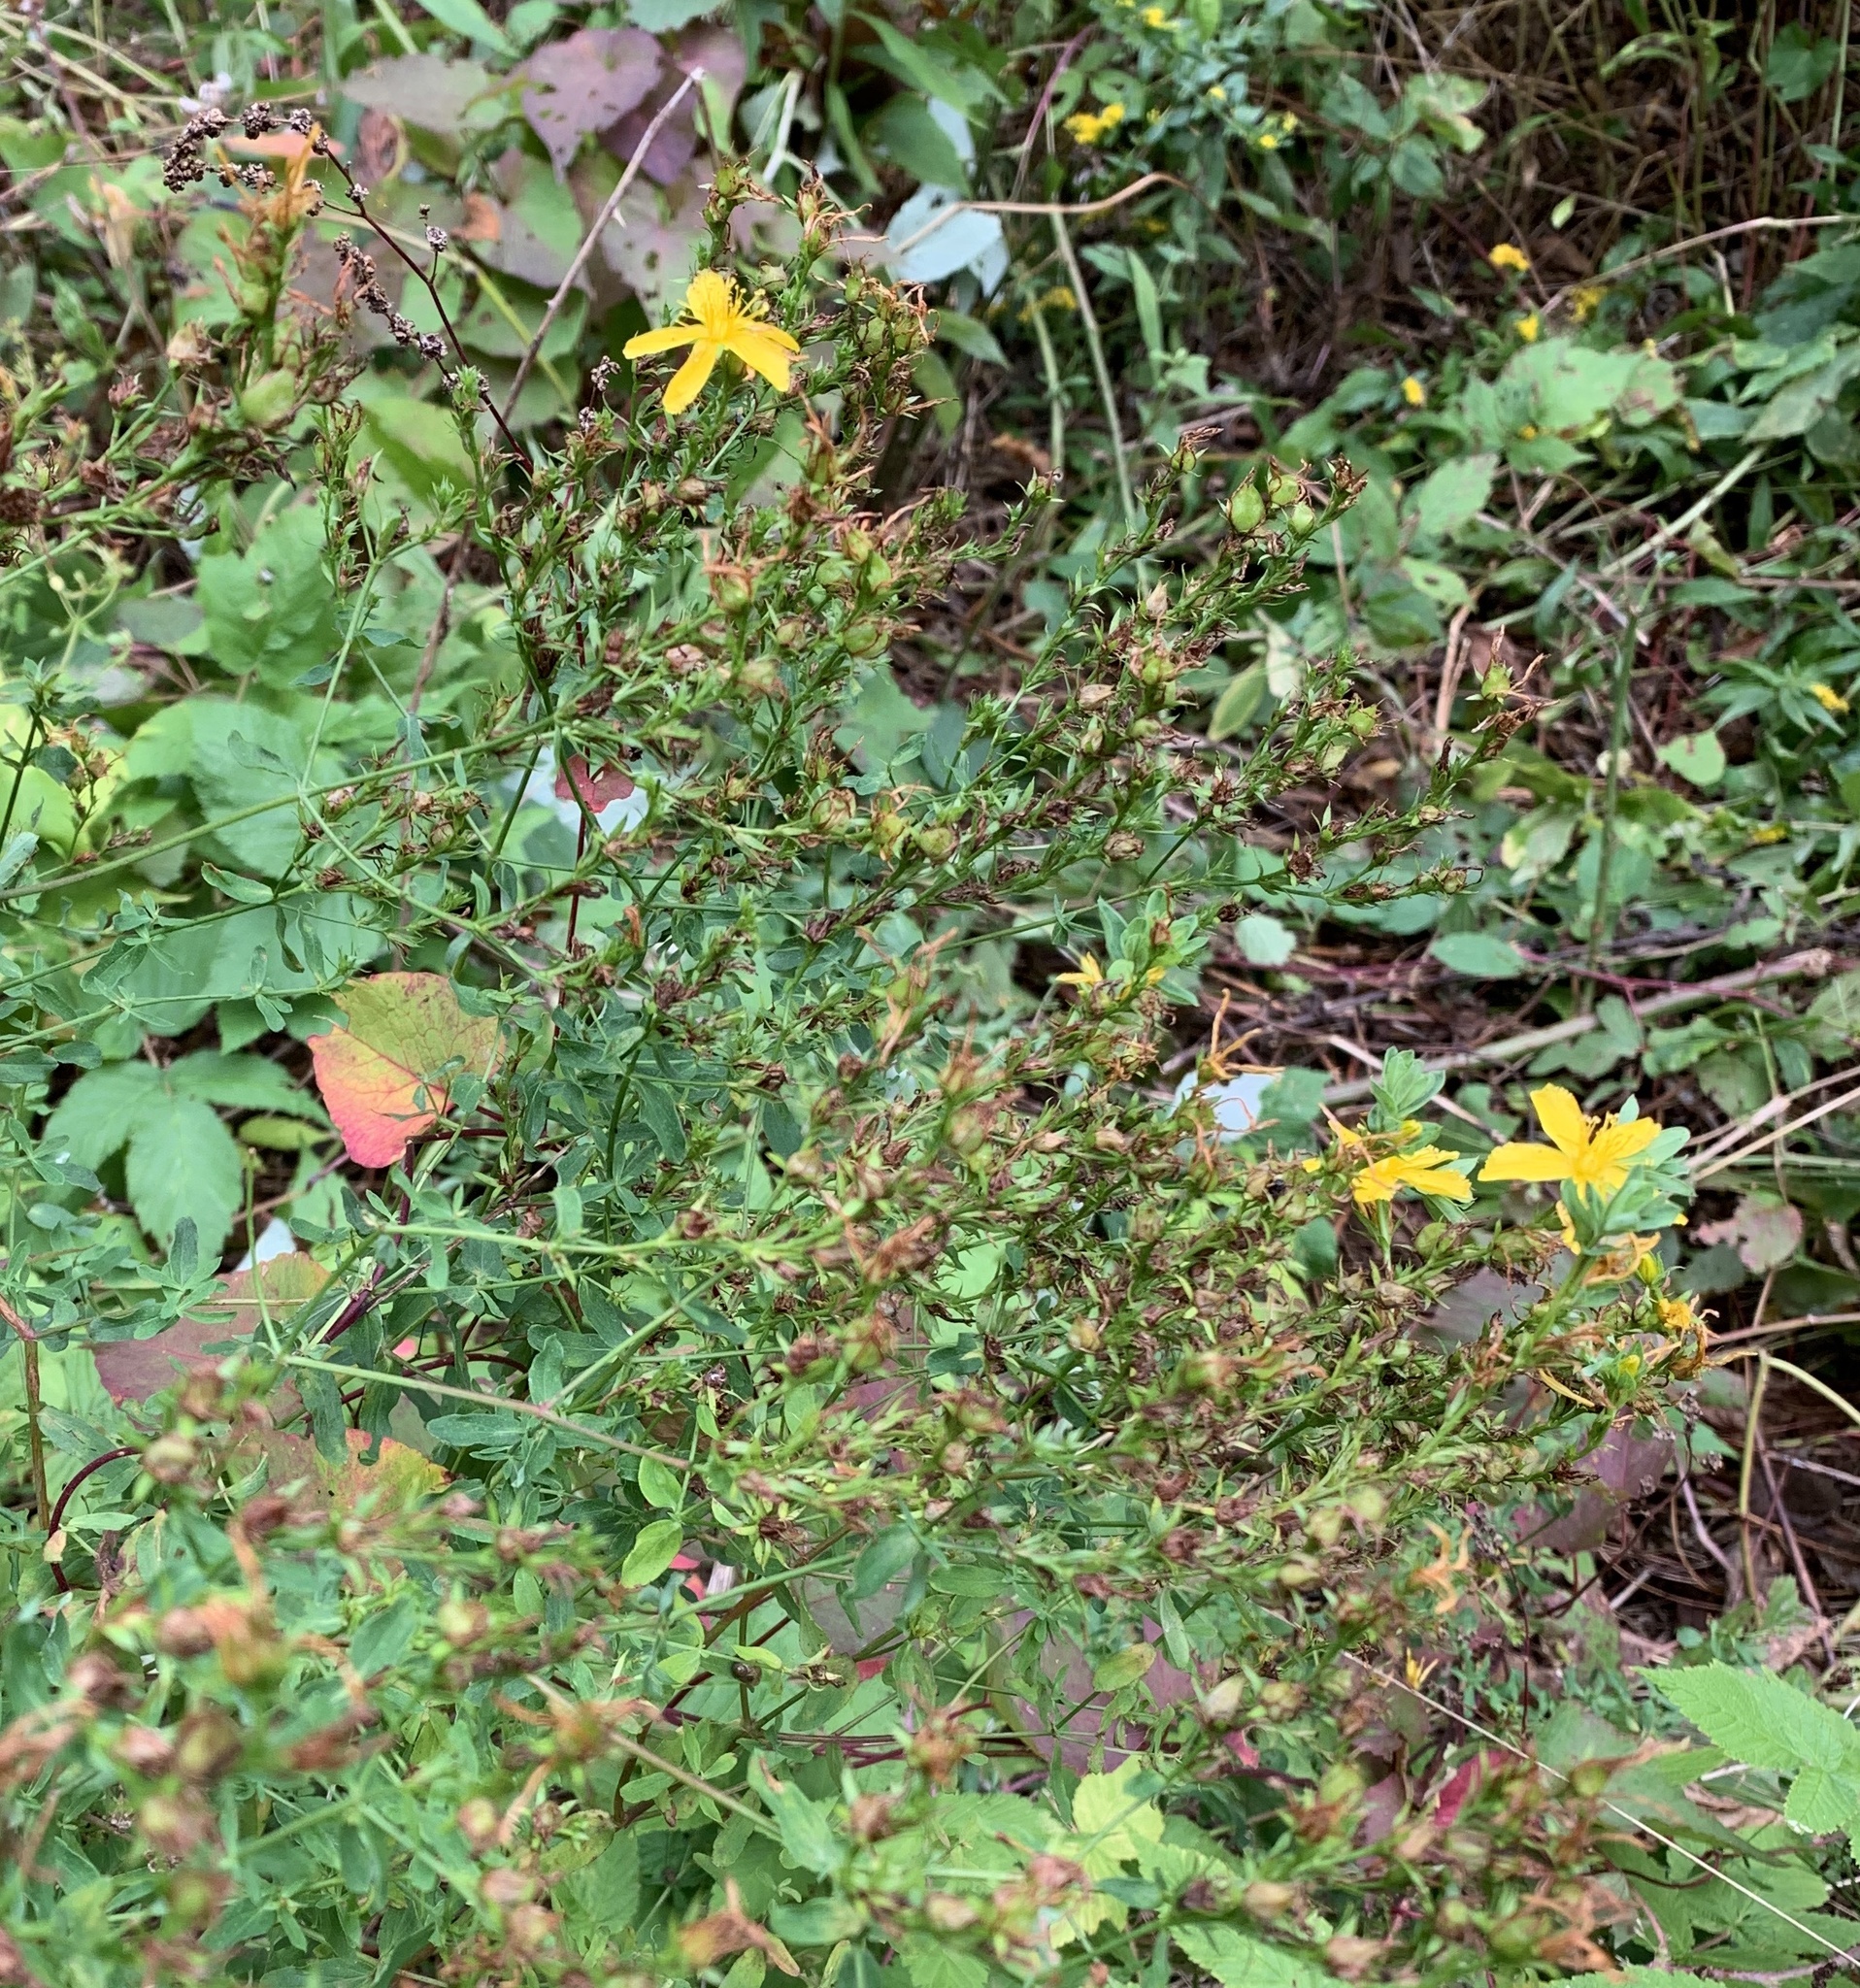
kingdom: Plantae
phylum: Tracheophyta
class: Magnoliopsida
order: Malpighiales
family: Hypericaceae
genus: Hypericum
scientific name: Hypericum perforatum
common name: Common st. johnswort
